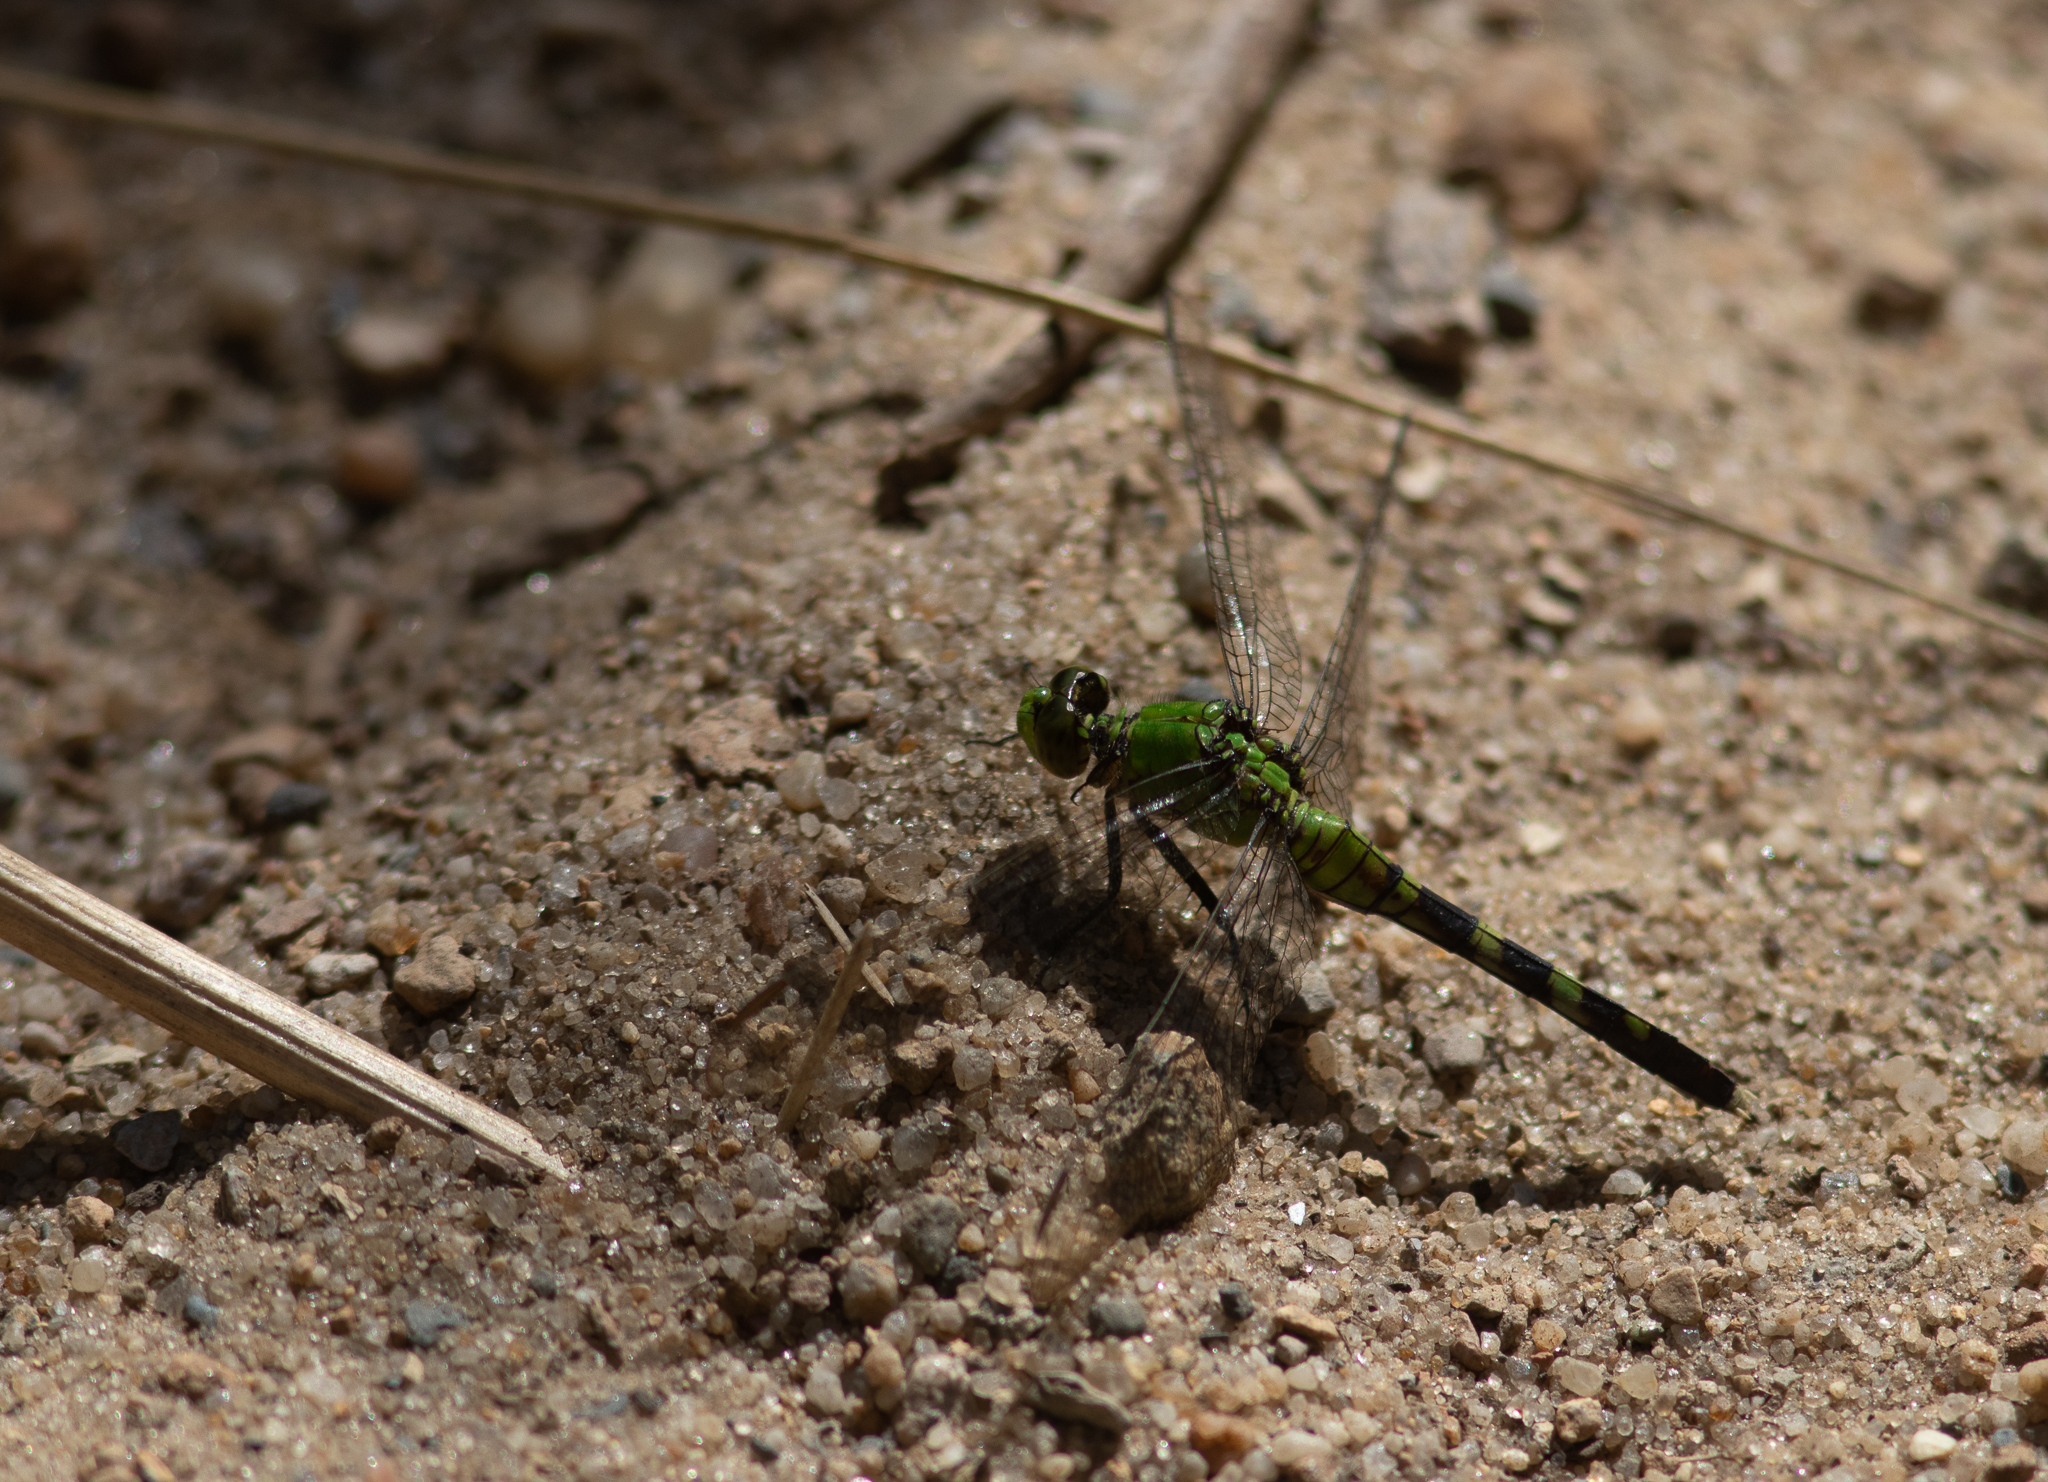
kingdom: Animalia
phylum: Arthropoda
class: Insecta
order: Odonata
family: Libellulidae
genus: Erythemis
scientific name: Erythemis simplicicollis
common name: Eastern pondhawk
